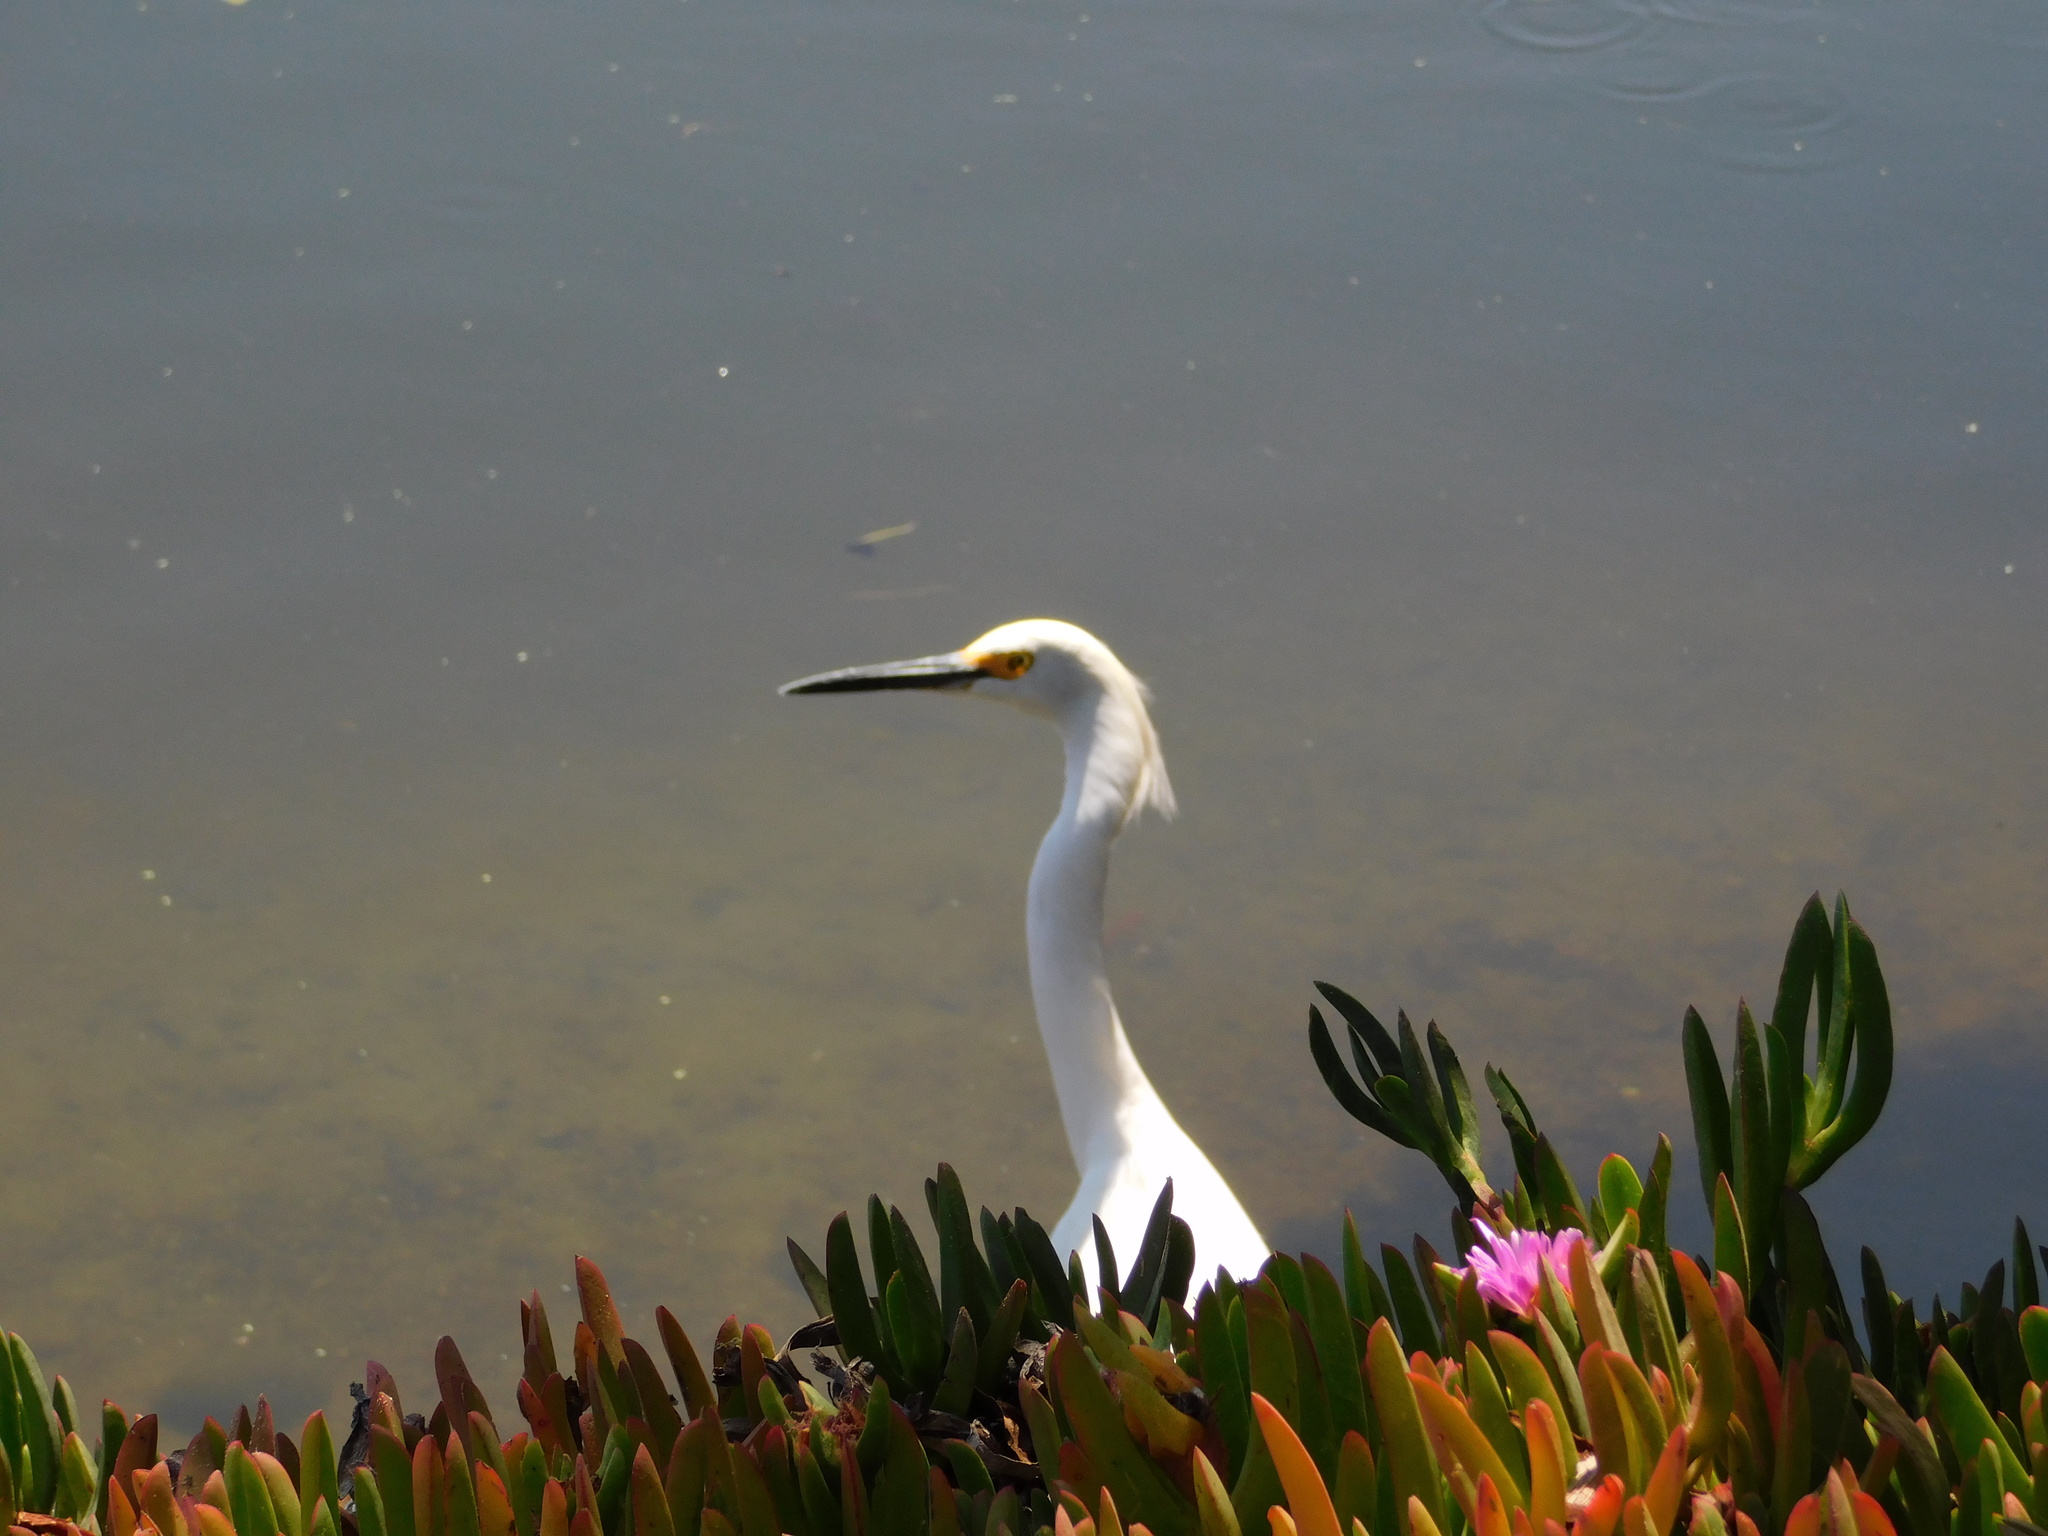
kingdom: Animalia
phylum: Chordata
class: Aves
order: Pelecaniformes
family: Ardeidae
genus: Egretta
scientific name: Egretta thula
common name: Snowy egret
